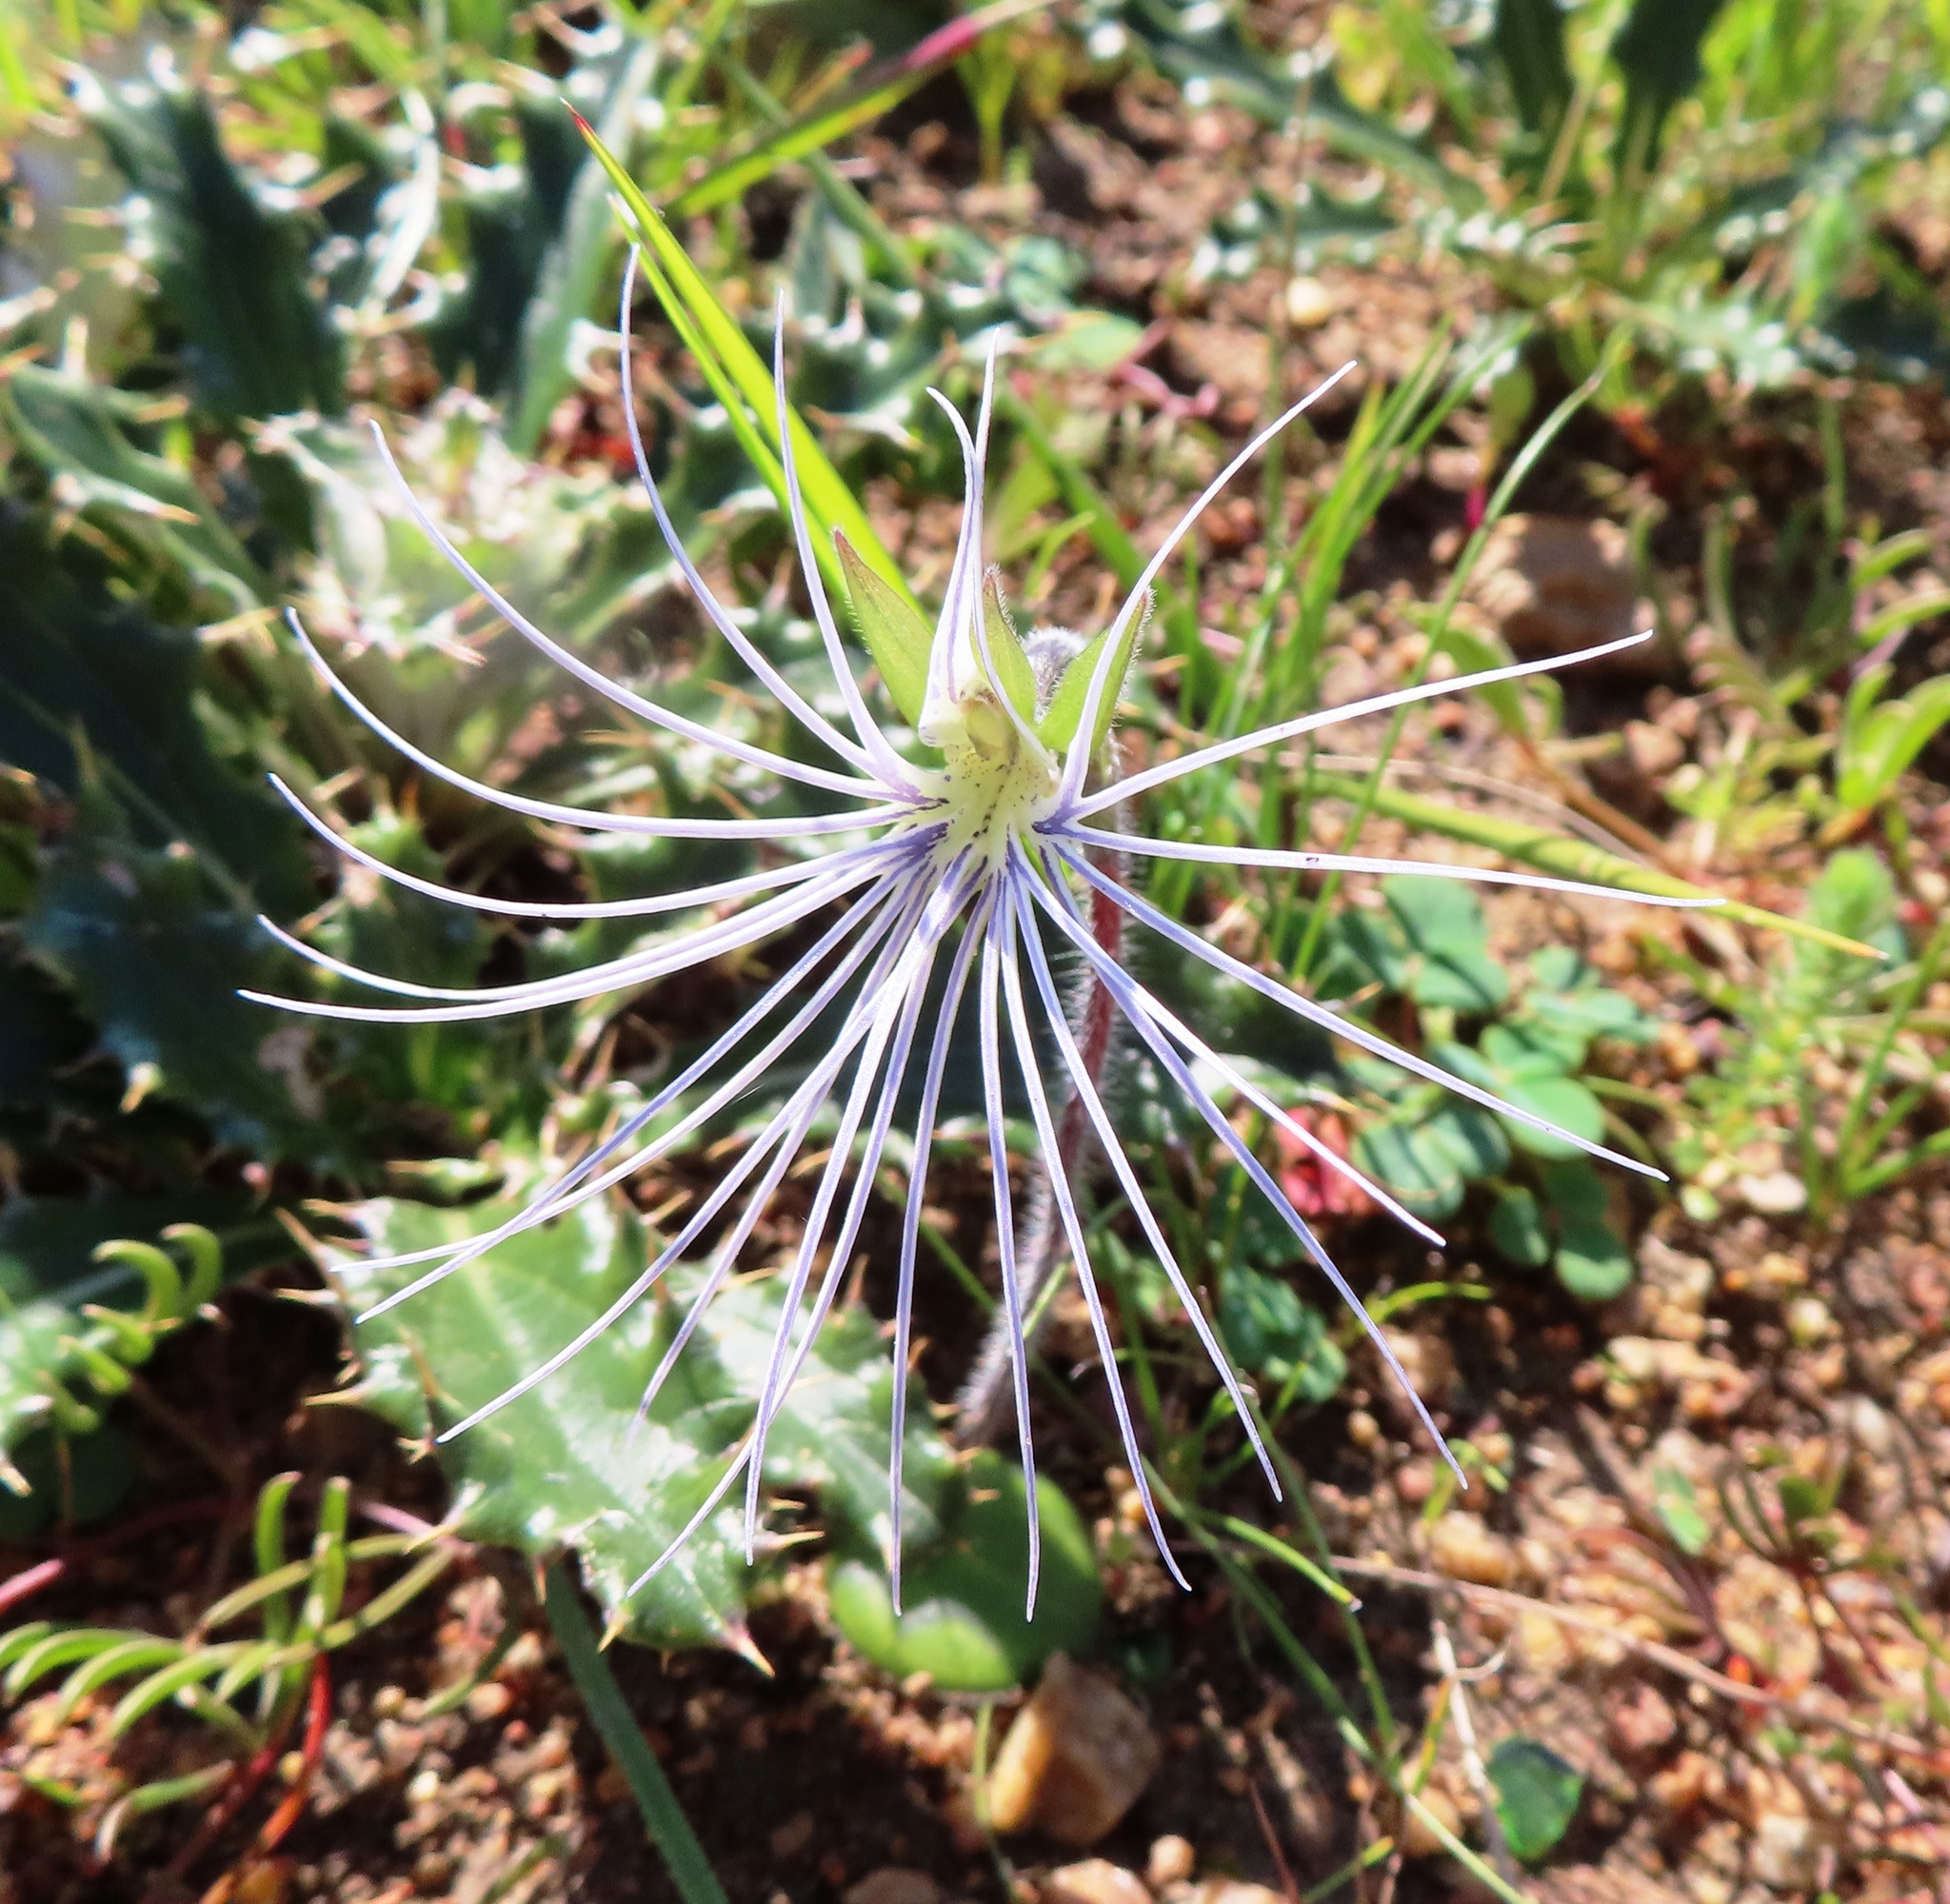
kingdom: Plantae
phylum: Tracheophyta
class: Liliopsida
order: Asparagales
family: Orchidaceae
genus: Holothrix
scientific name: Holothrix burmanniana
